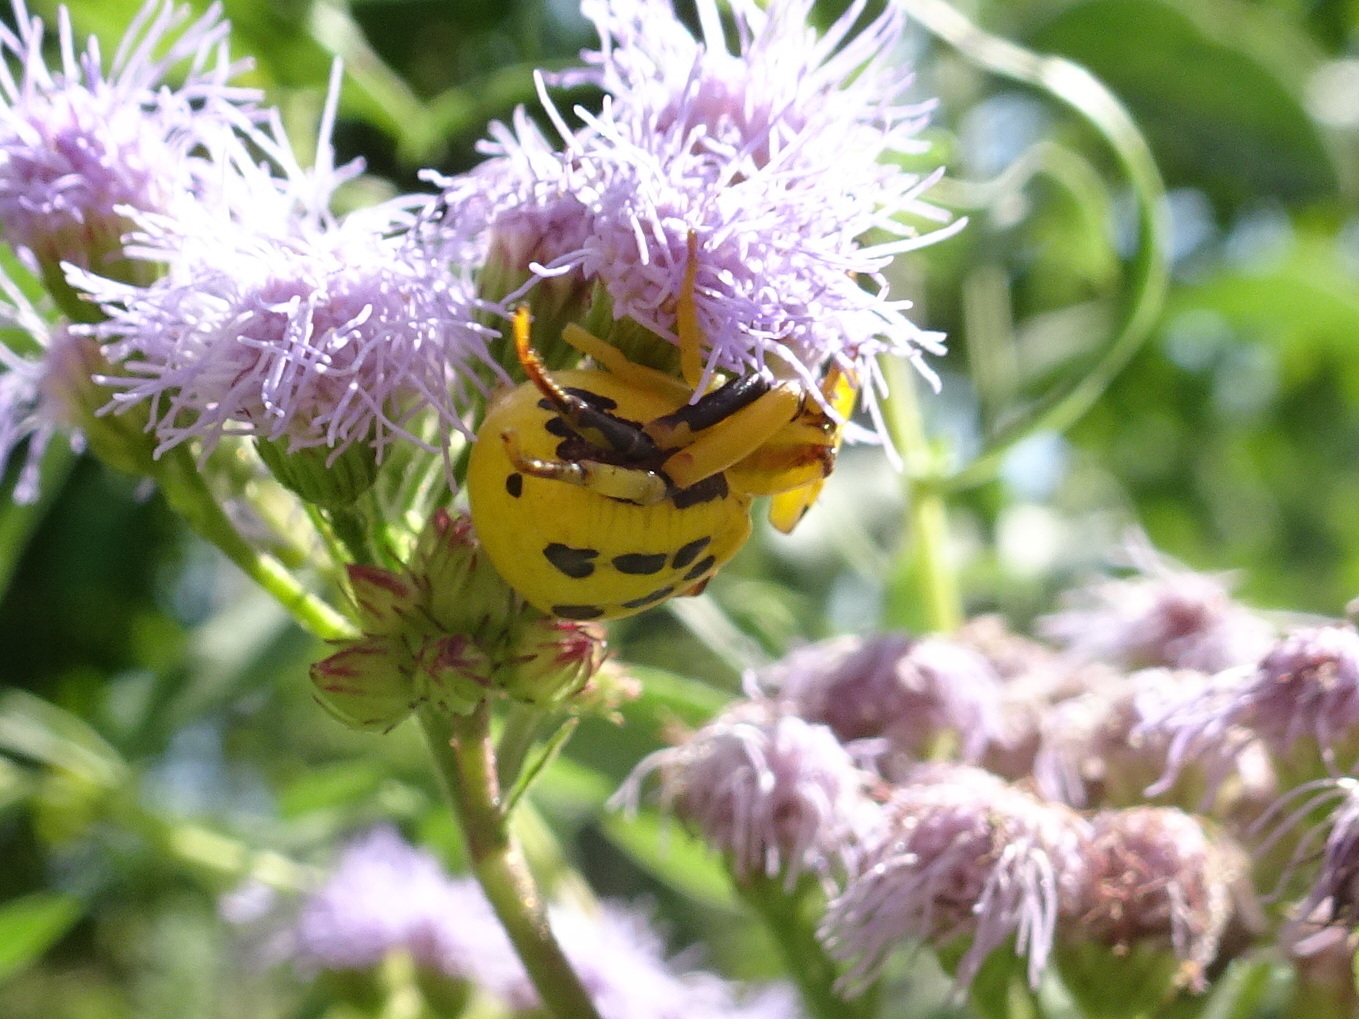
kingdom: Animalia
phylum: Arthropoda
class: Arachnida
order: Araneae
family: Thomisidae
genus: Misumenoides
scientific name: Misumenoides formosipes
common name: White-banded crab spider
